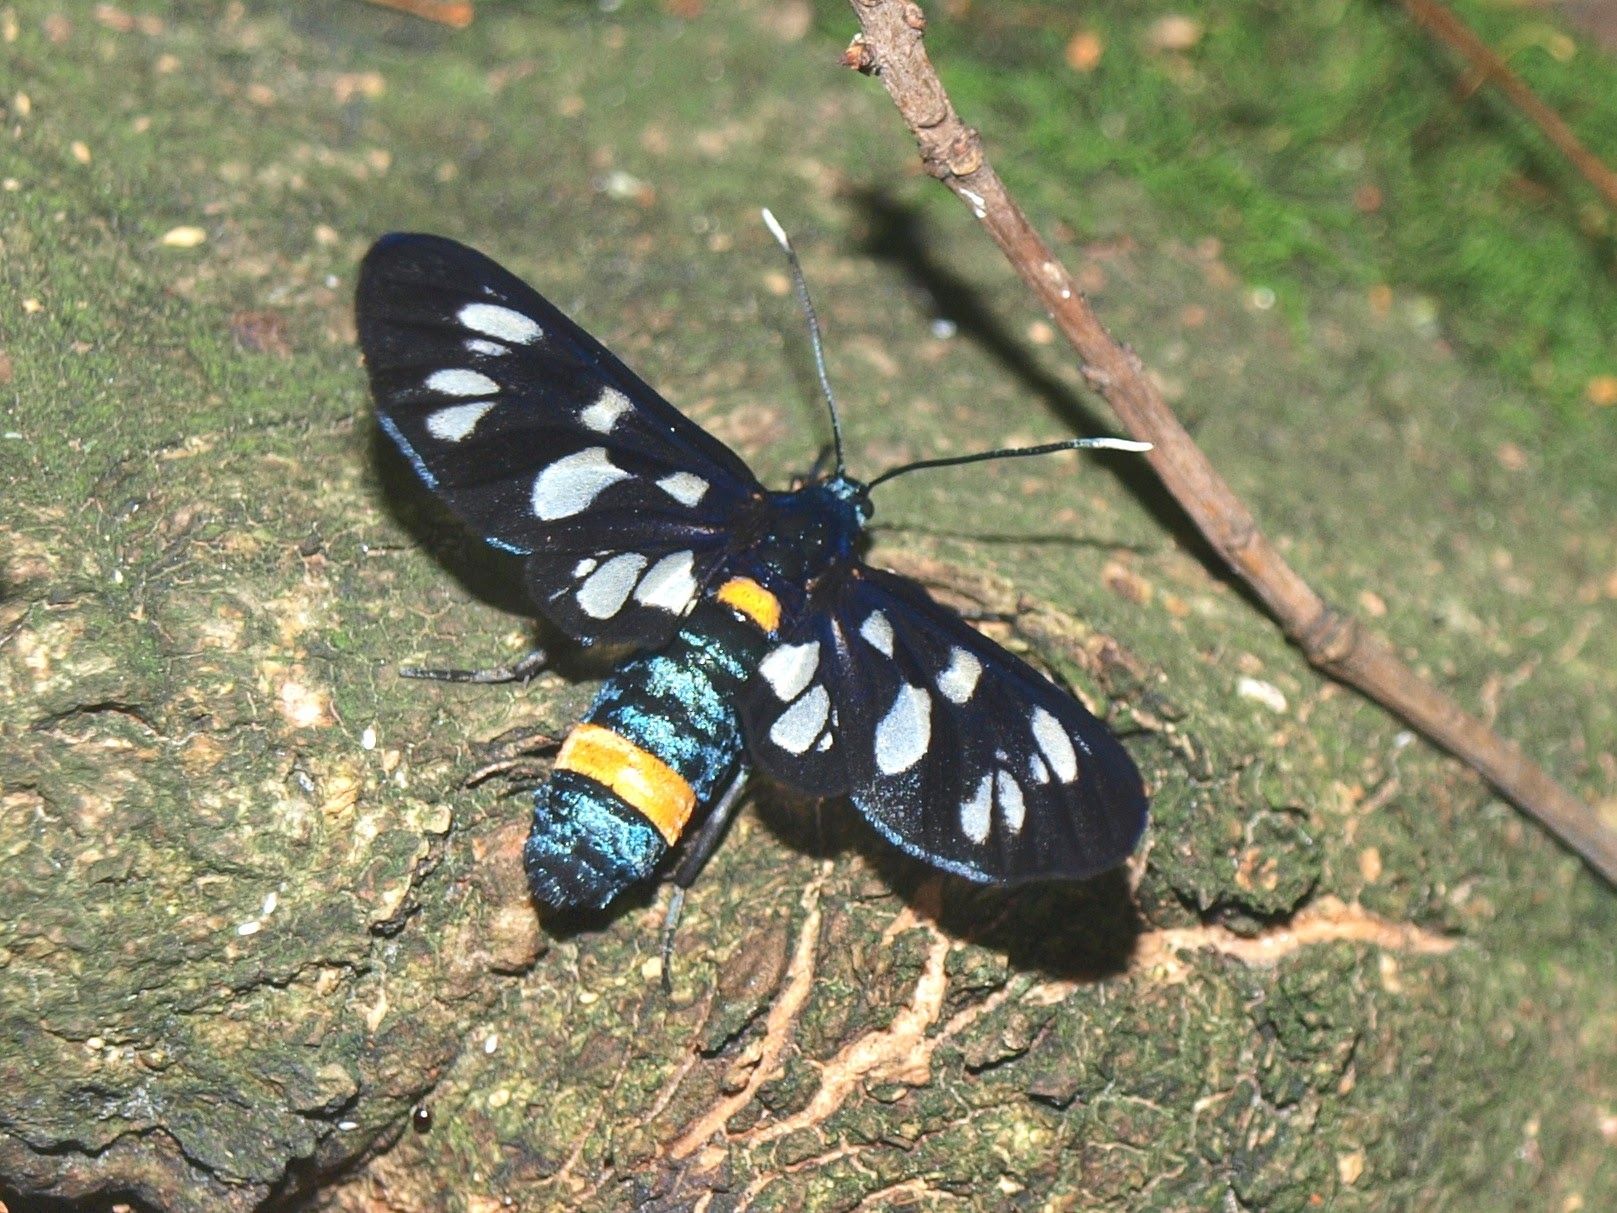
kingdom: Animalia
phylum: Arthropoda
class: Insecta
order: Lepidoptera
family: Erebidae
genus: Amata
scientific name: Amata phegea
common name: Nine-spotted
